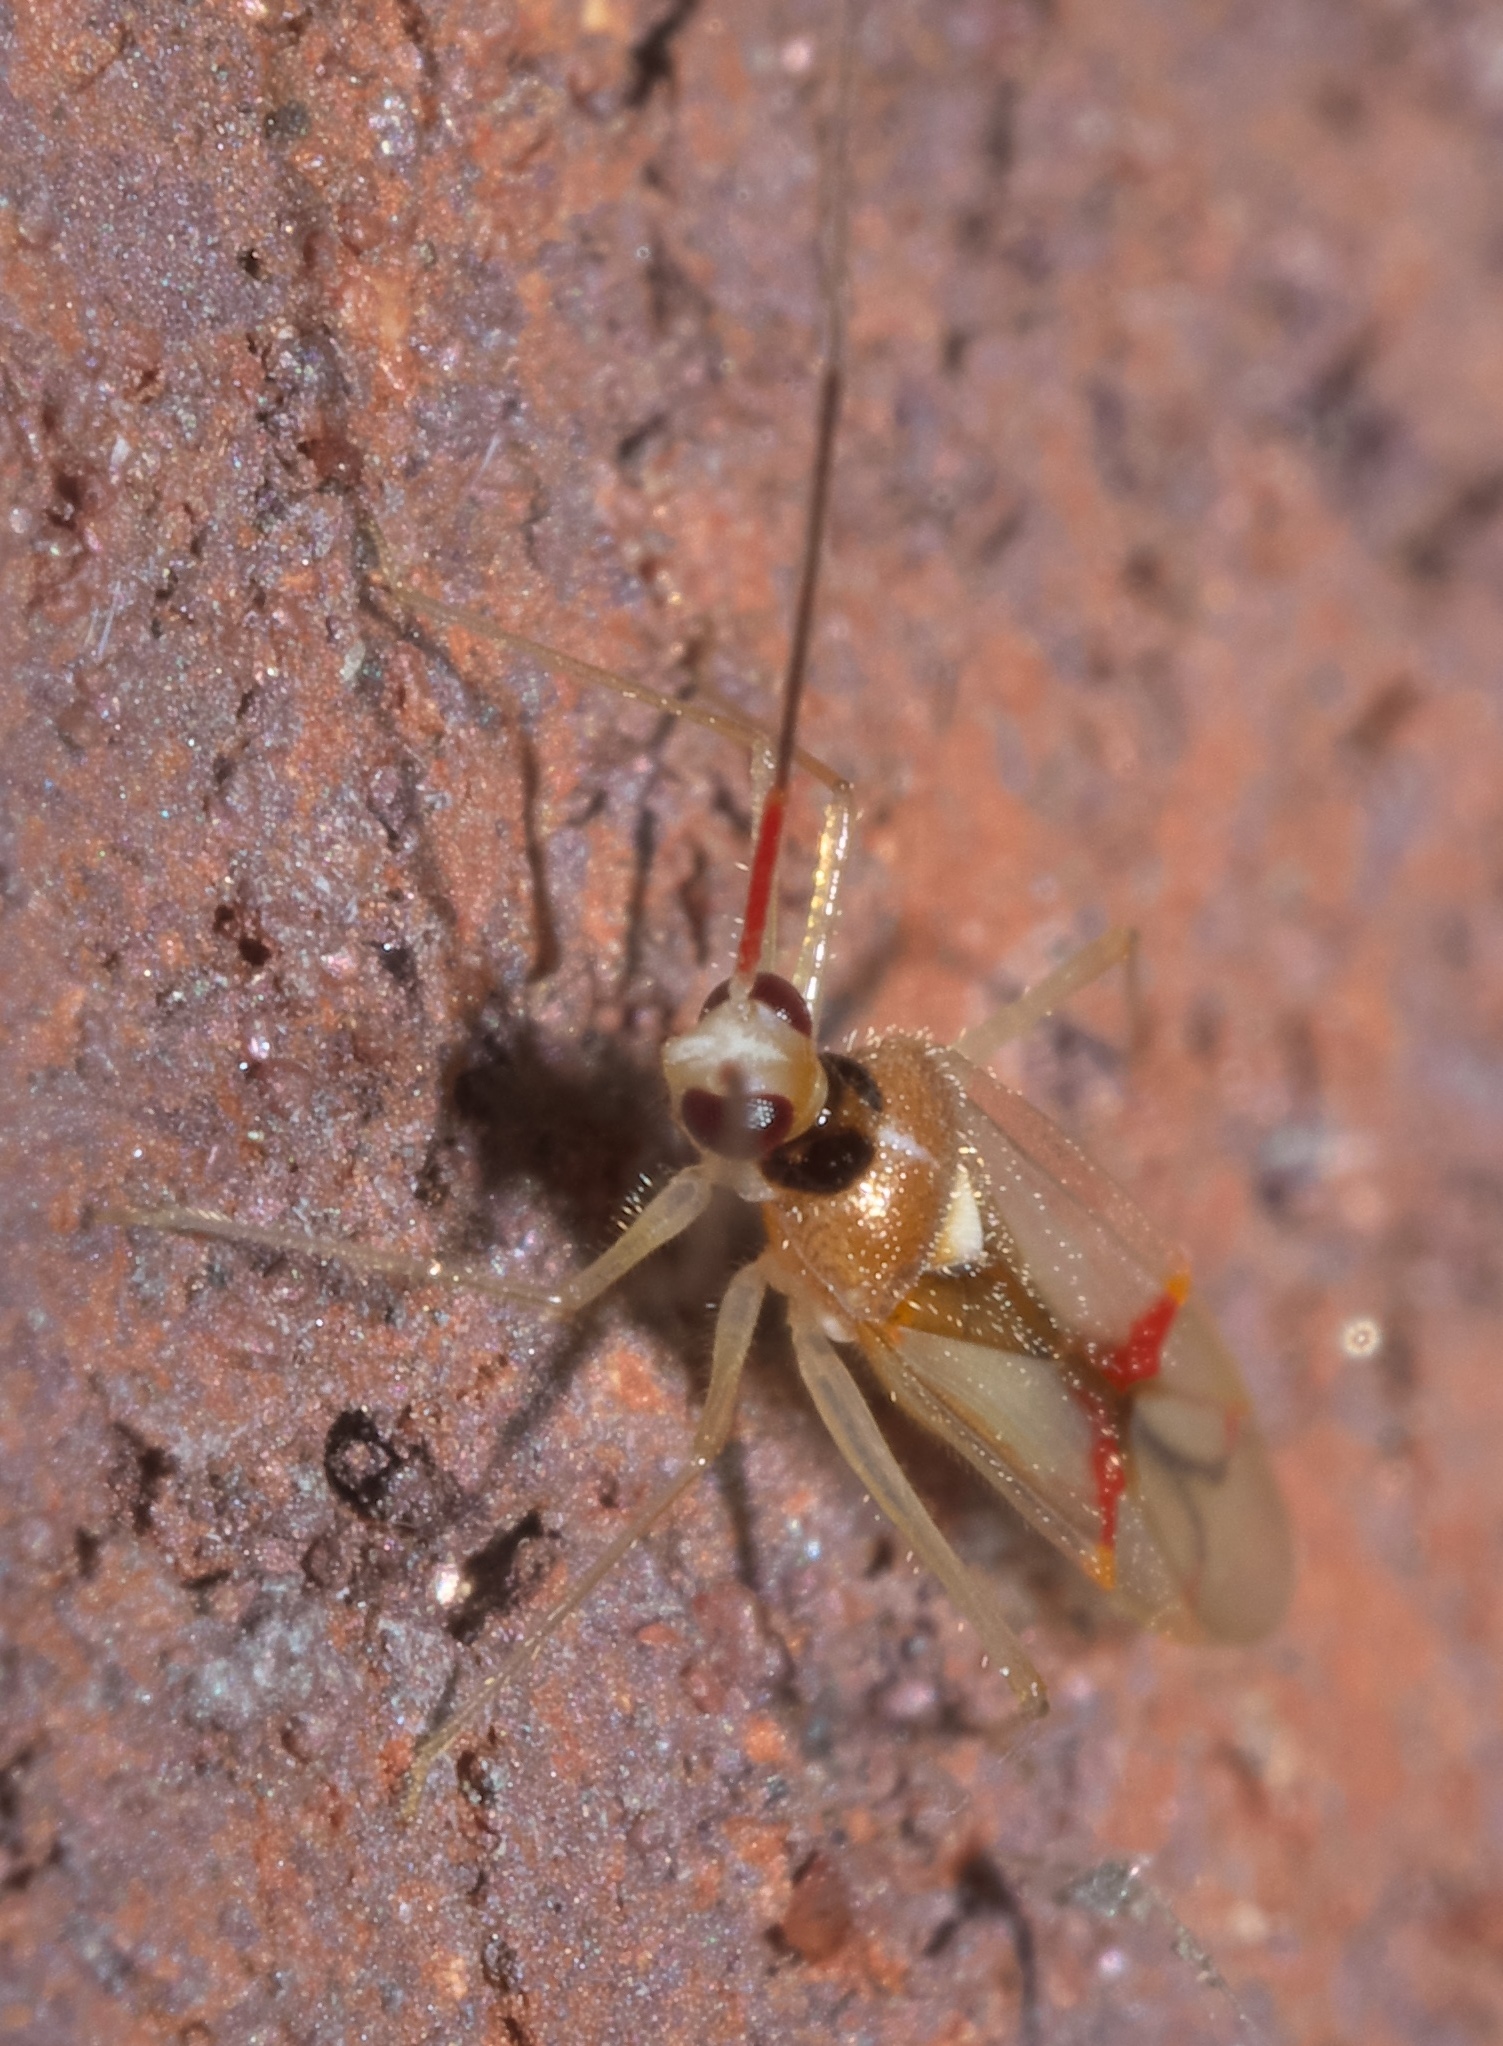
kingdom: Animalia
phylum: Arthropoda
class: Insecta
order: Hemiptera
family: Miridae
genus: Hyaliodes
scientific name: Hyaliodes harti
